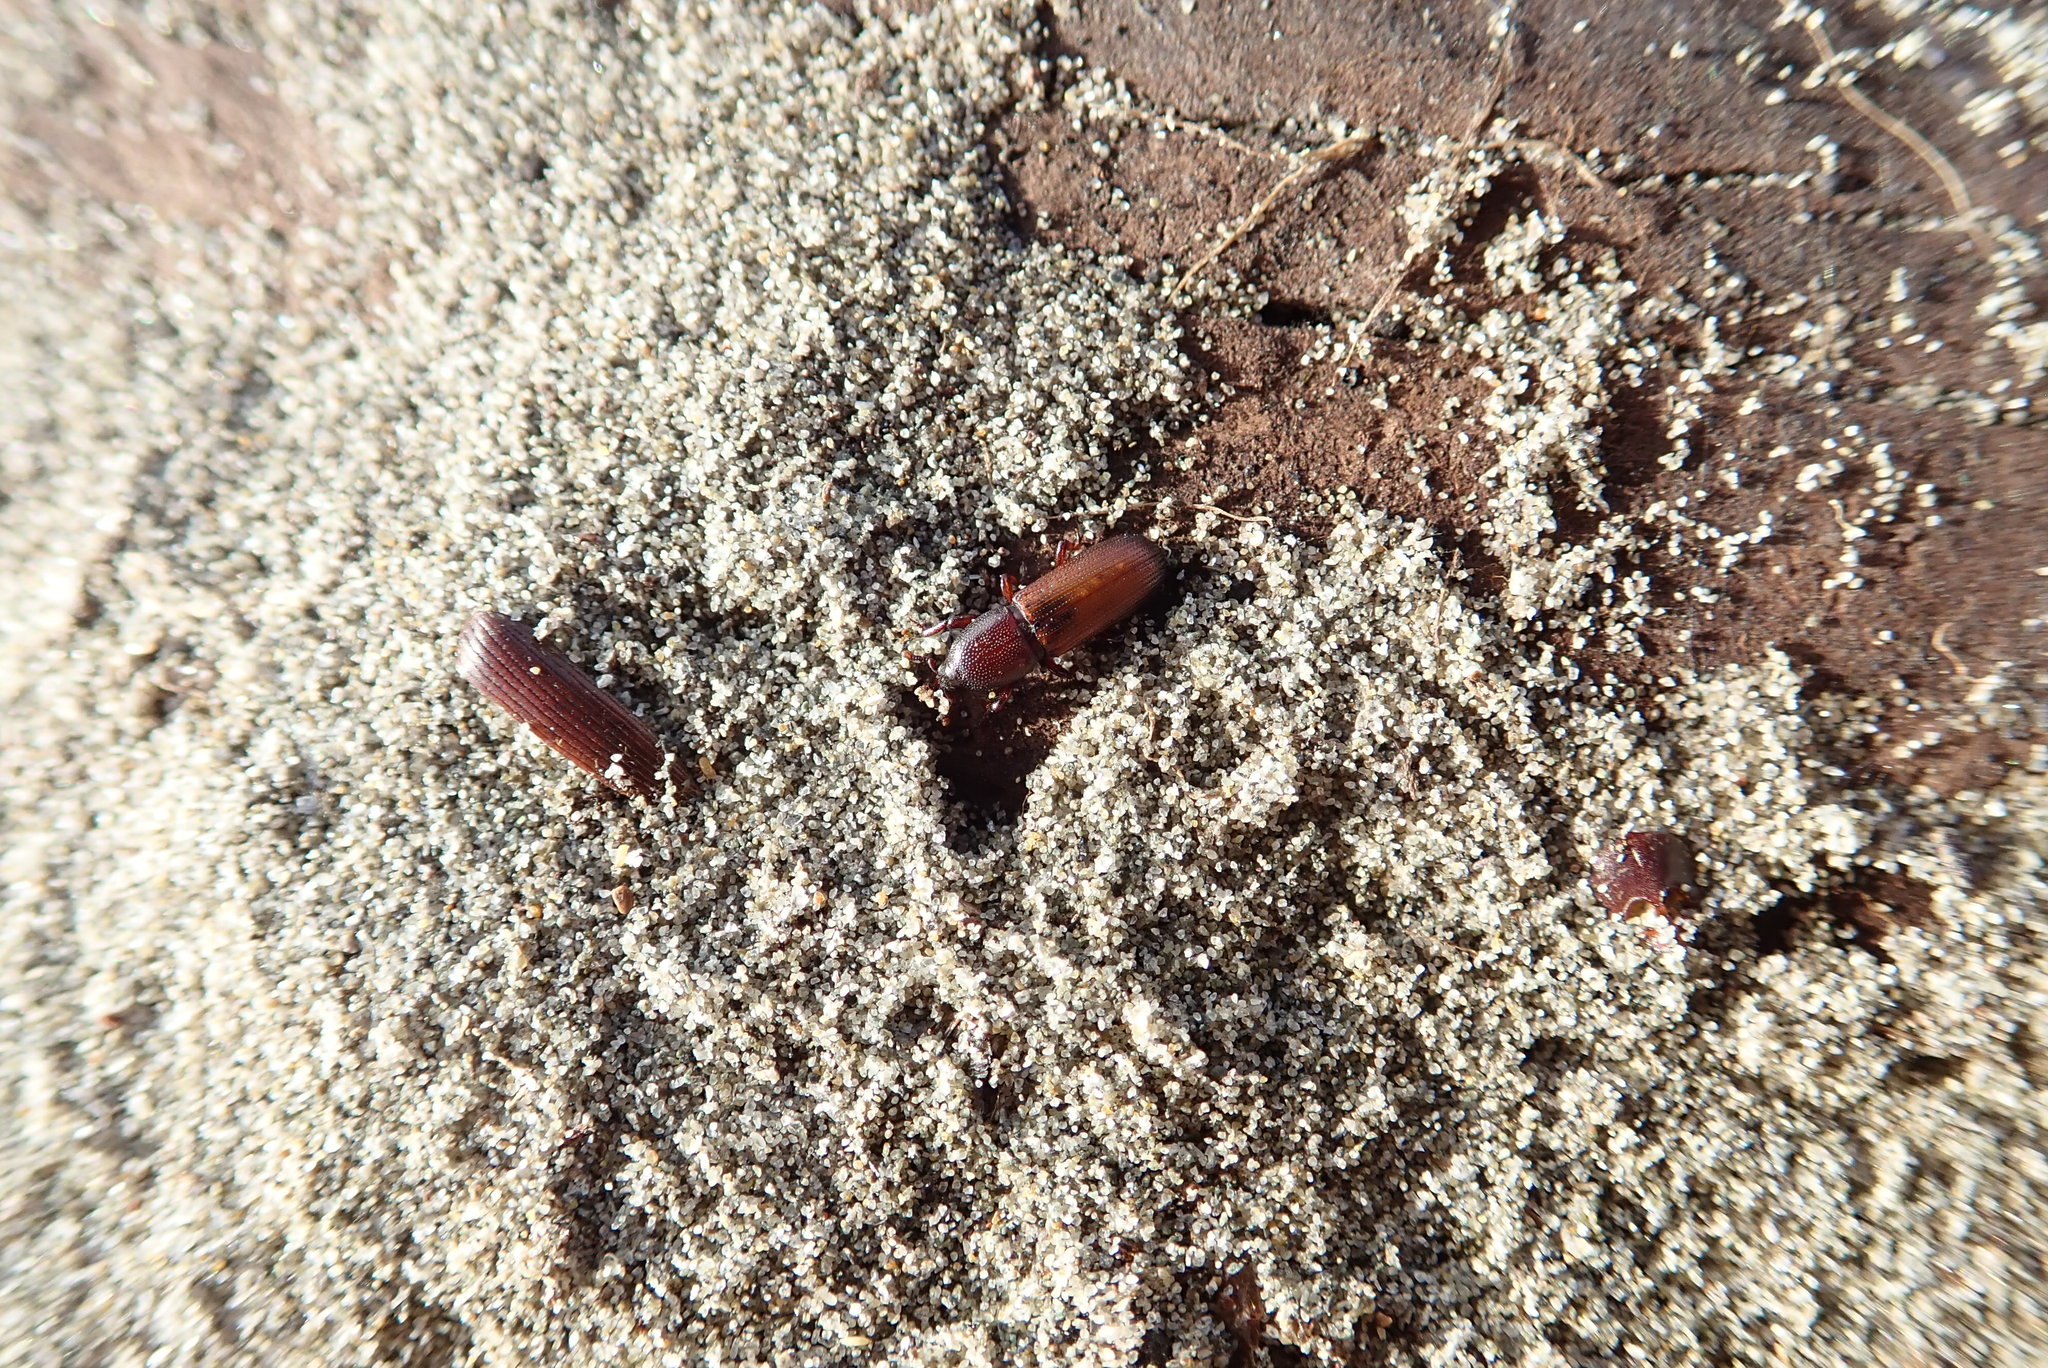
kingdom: Animalia
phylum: Arthropoda
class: Insecta
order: Coleoptera
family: Curculionidae
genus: Mesites
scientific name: Mesites pallidipennis
